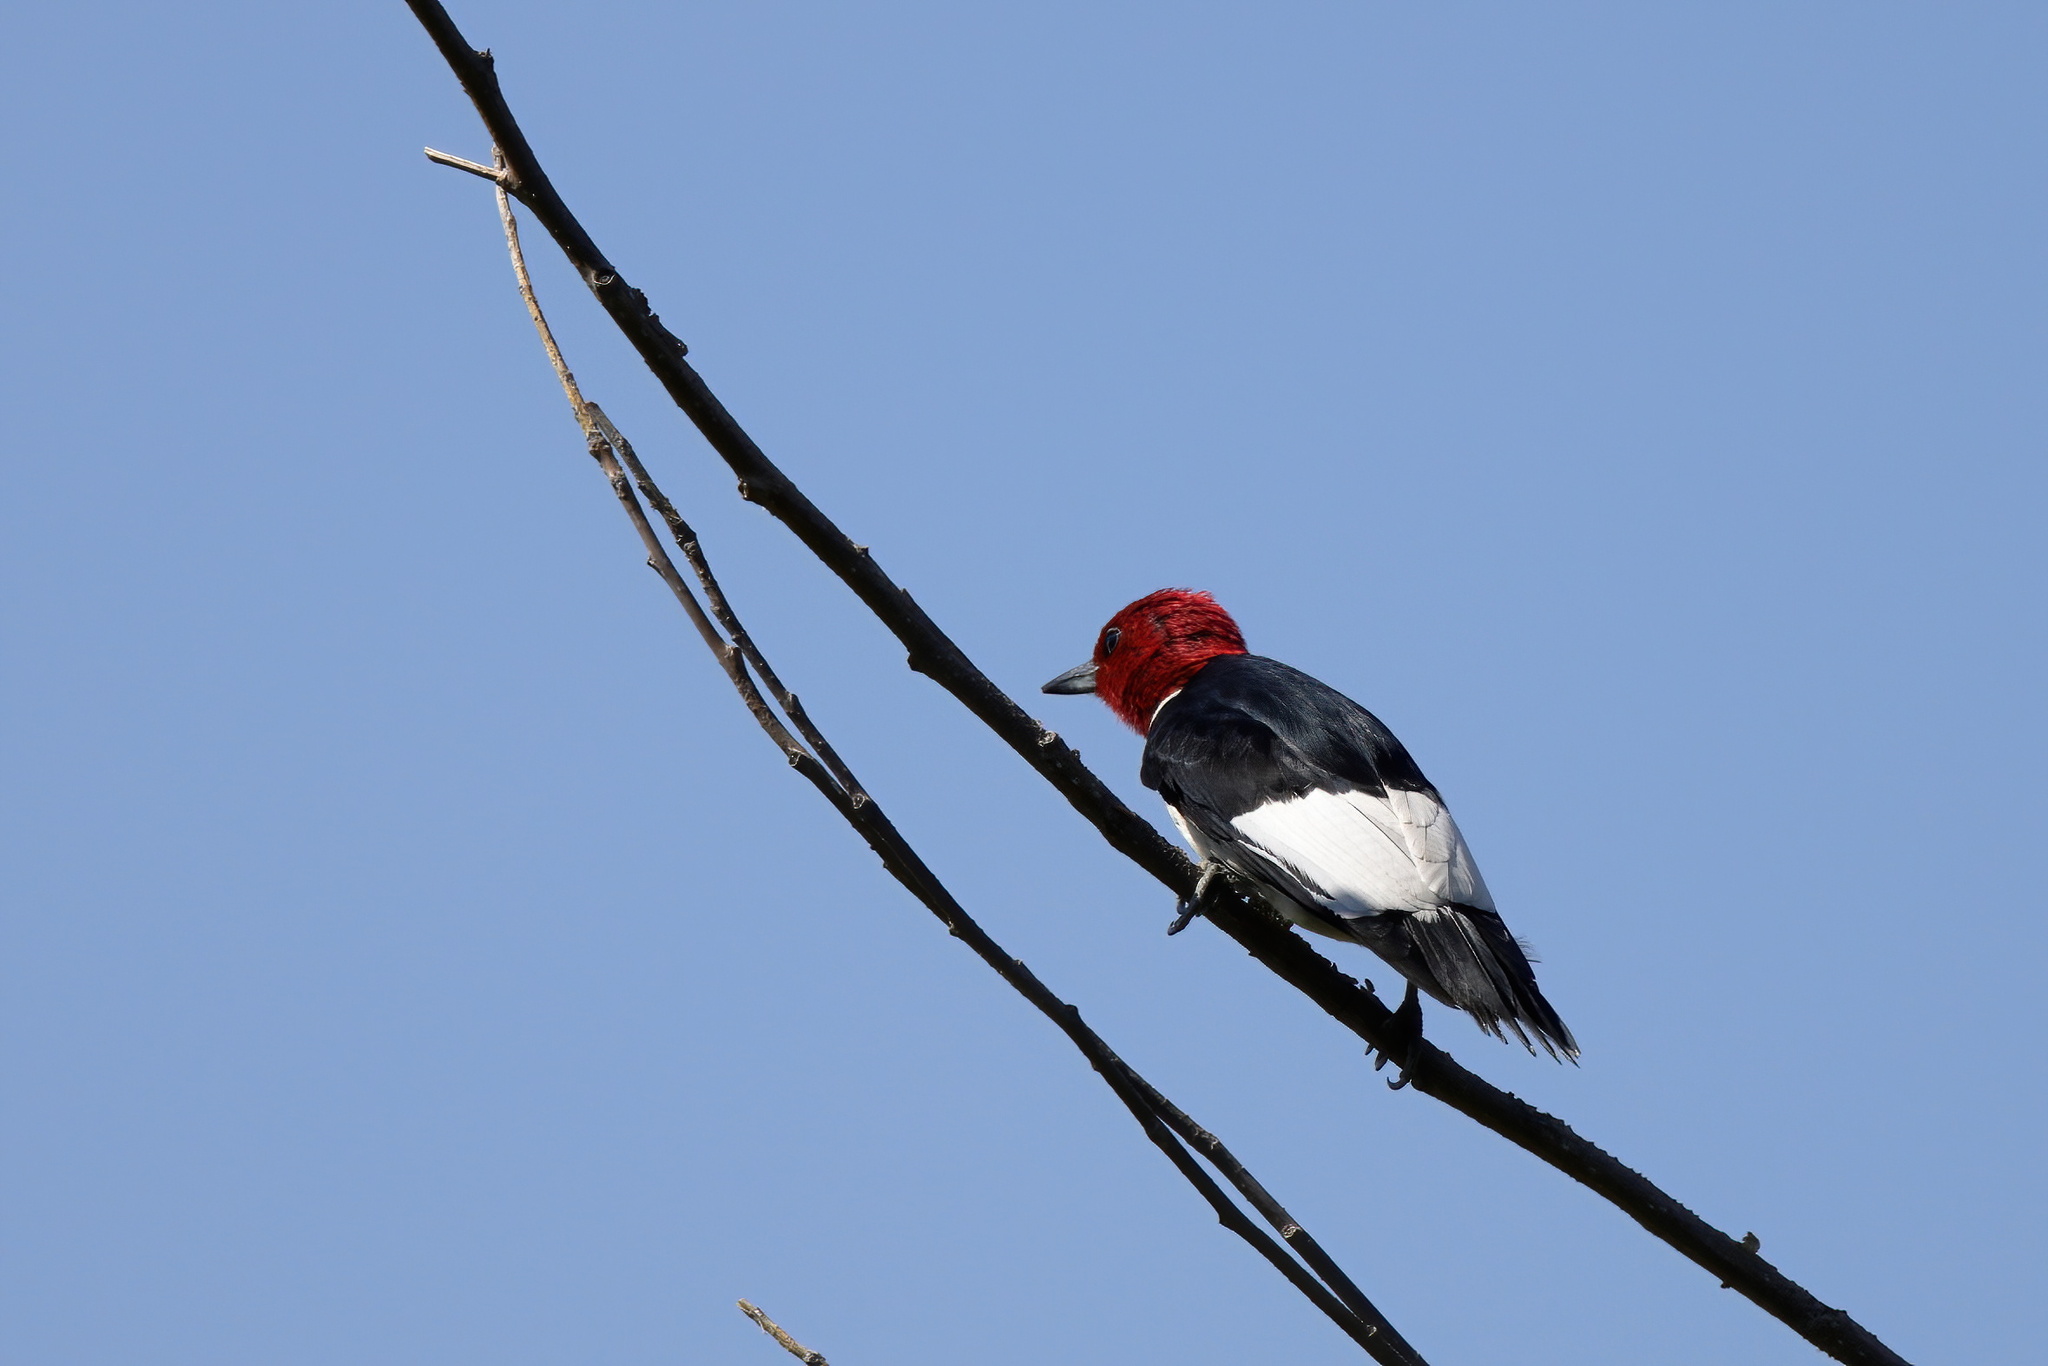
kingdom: Animalia
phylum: Chordata
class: Aves
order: Piciformes
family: Picidae
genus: Melanerpes
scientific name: Melanerpes erythrocephalus
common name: Red-headed woodpecker
